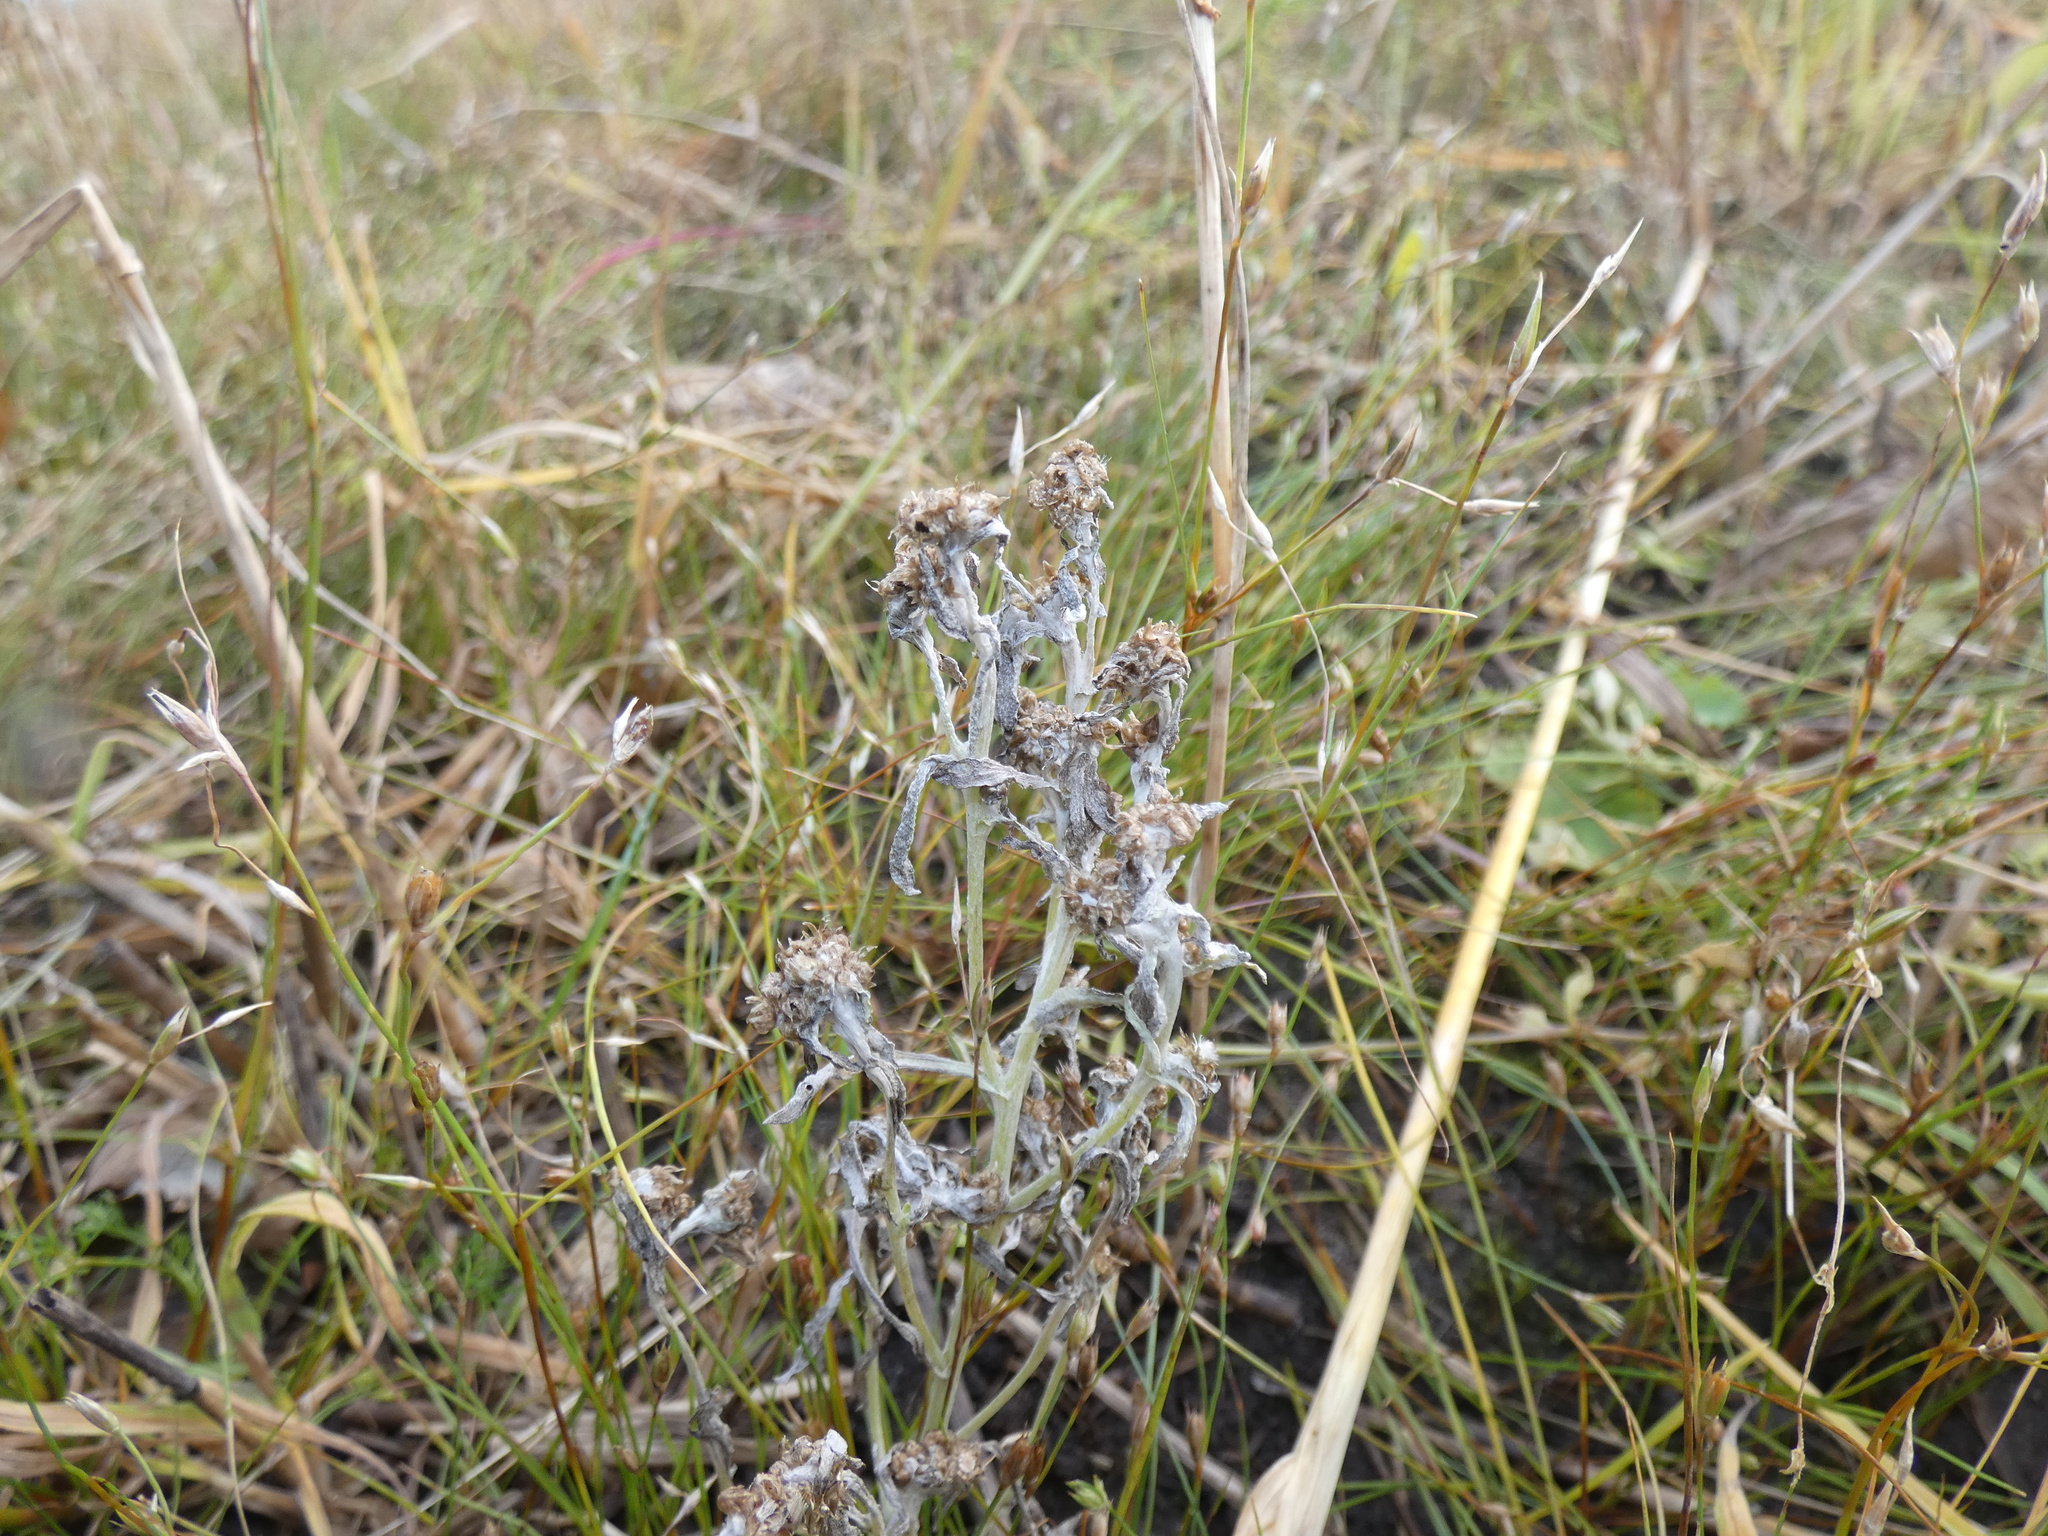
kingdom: Plantae
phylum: Tracheophyta
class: Magnoliopsida
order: Asterales
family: Asteraceae
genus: Gnaphalium
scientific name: Gnaphalium uliginosum
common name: Marsh cudweed
